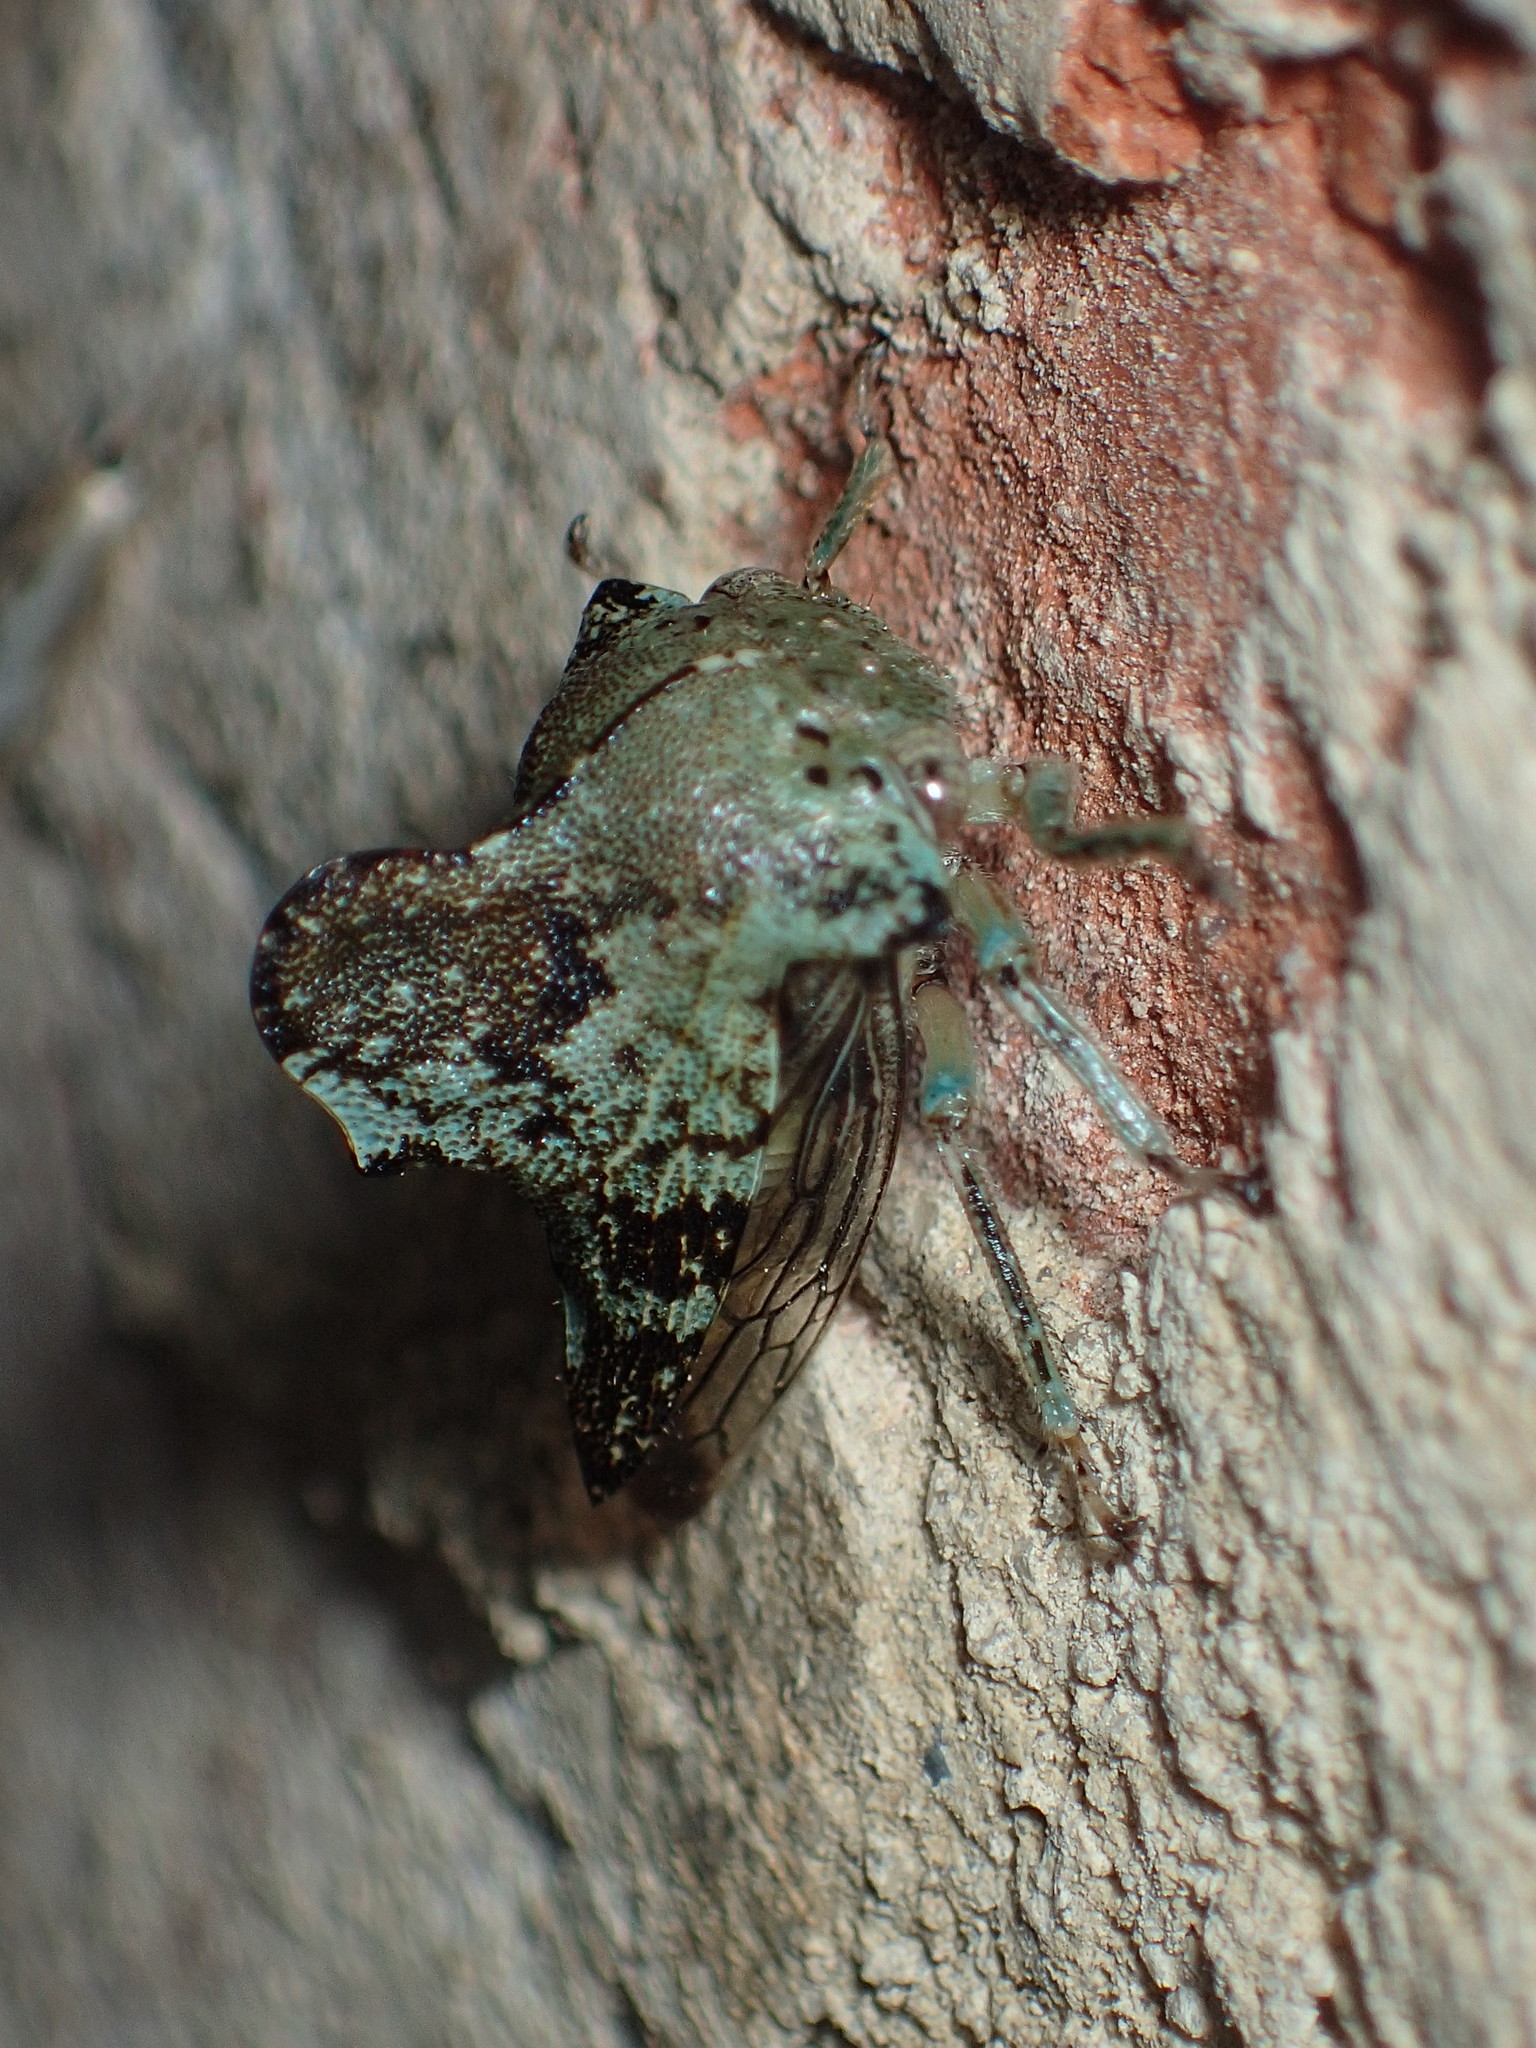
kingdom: Animalia
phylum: Arthropoda
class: Insecta
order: Hemiptera
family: Membracidae
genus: Telamona
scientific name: Telamona concava
